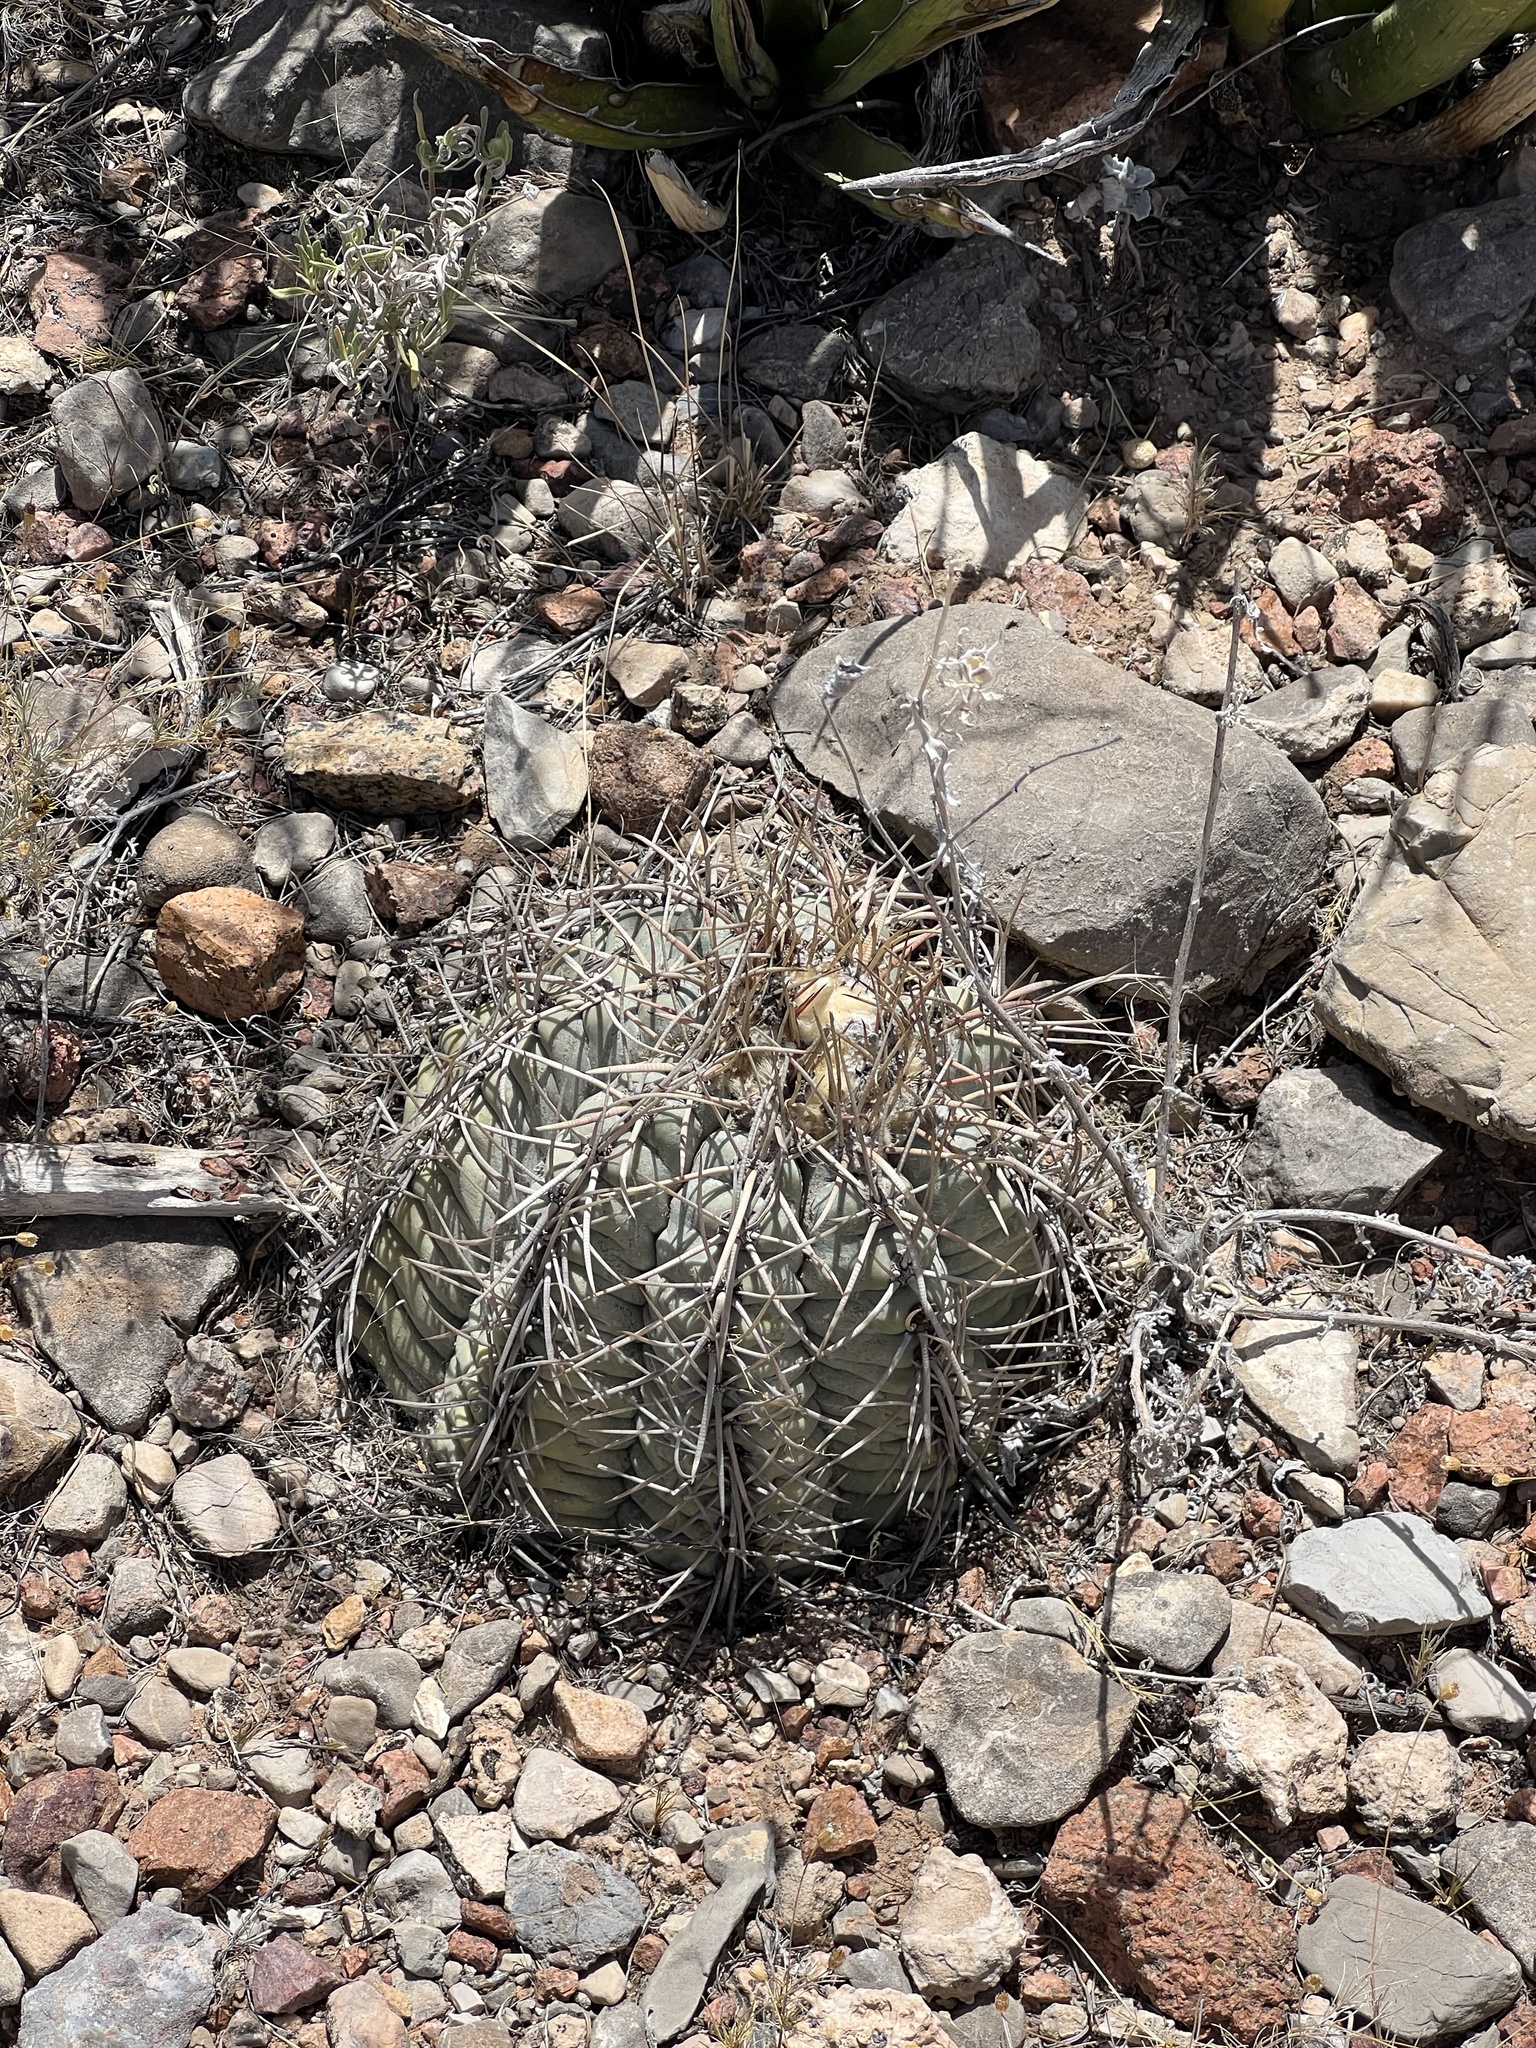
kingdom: Plantae
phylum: Tracheophyta
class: Magnoliopsida
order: Caryophyllales
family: Cactaceae
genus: Echinocactus
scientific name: Echinocactus horizonthalonius
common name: Devilshead
